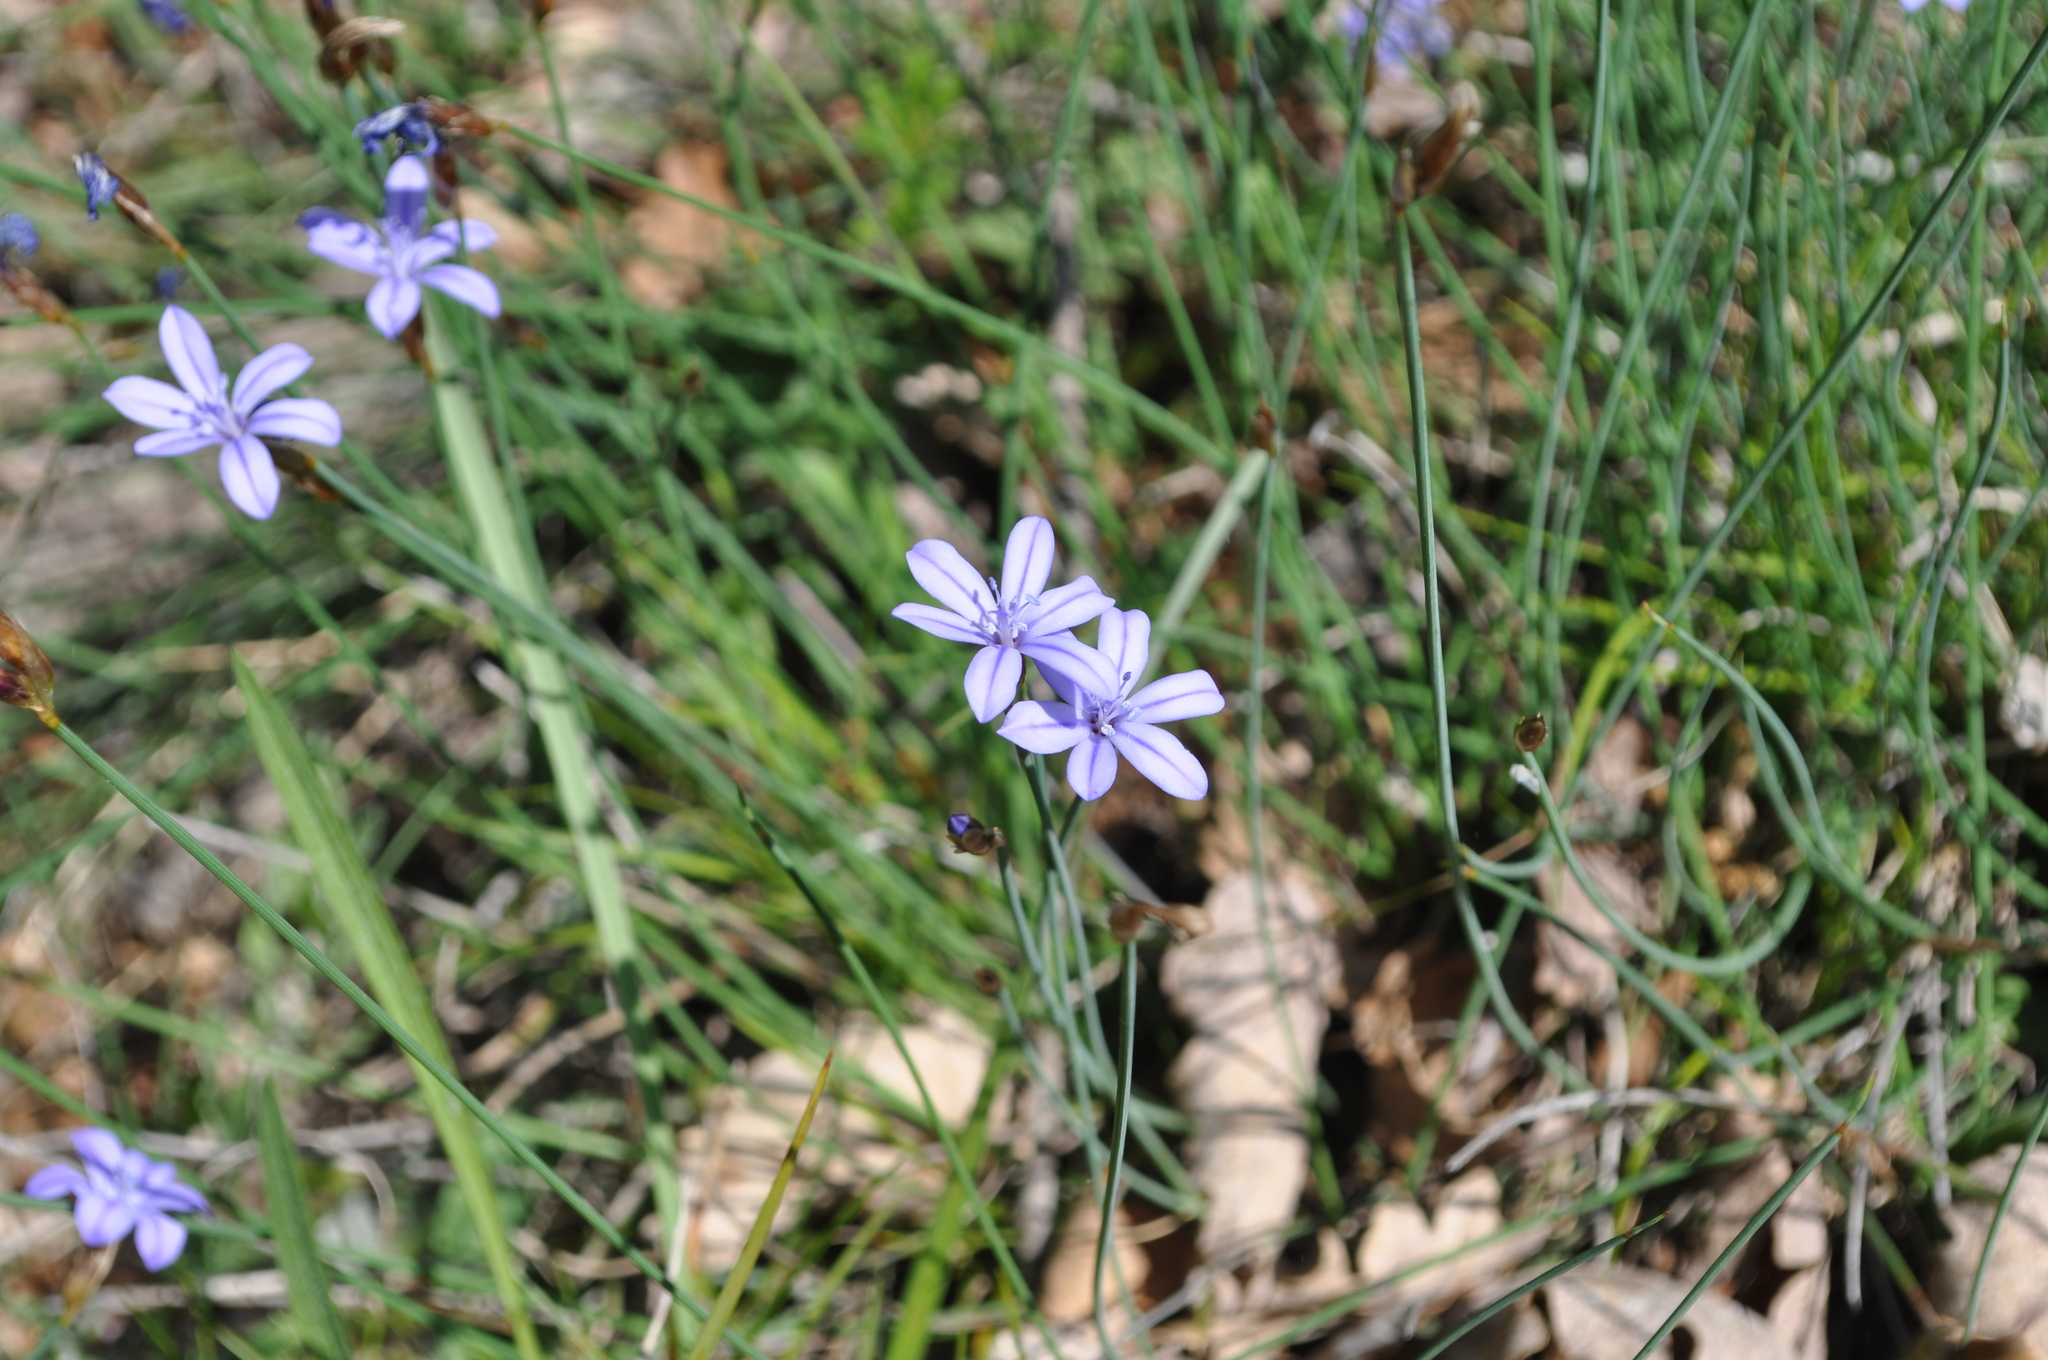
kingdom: Plantae
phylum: Tracheophyta
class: Liliopsida
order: Asparagales
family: Asparagaceae
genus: Aphyllanthes
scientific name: Aphyllanthes monspeliensis
